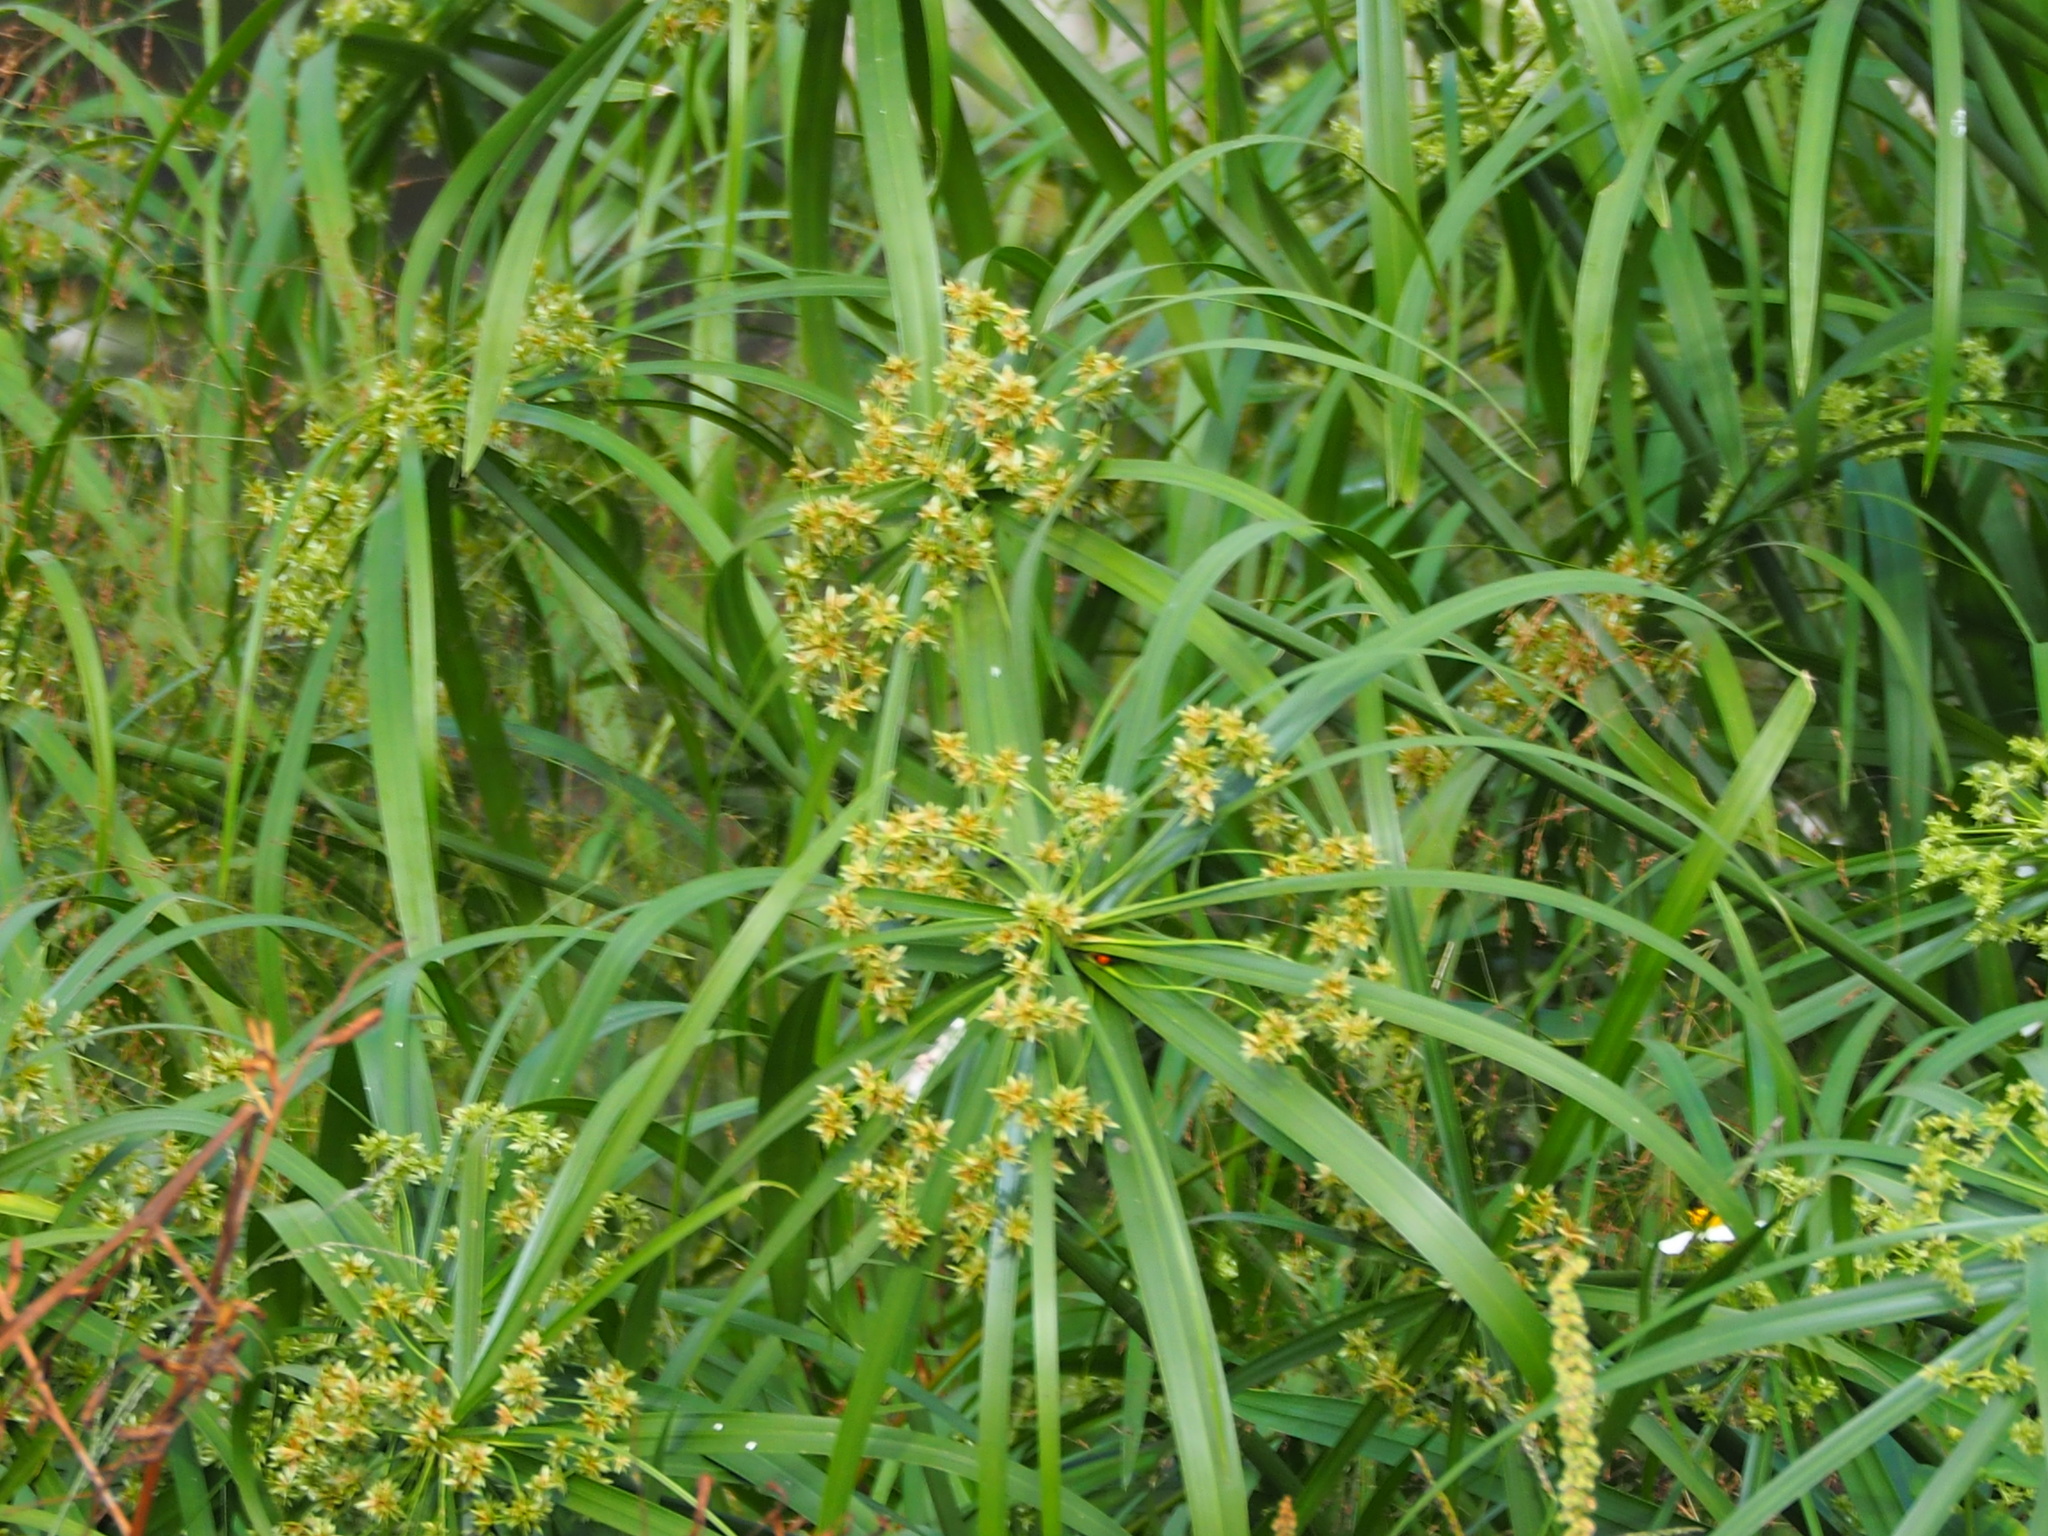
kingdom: Plantae
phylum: Tracheophyta
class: Liliopsida
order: Poales
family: Cyperaceae
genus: Cyperus
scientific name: Cyperus alternifolius
